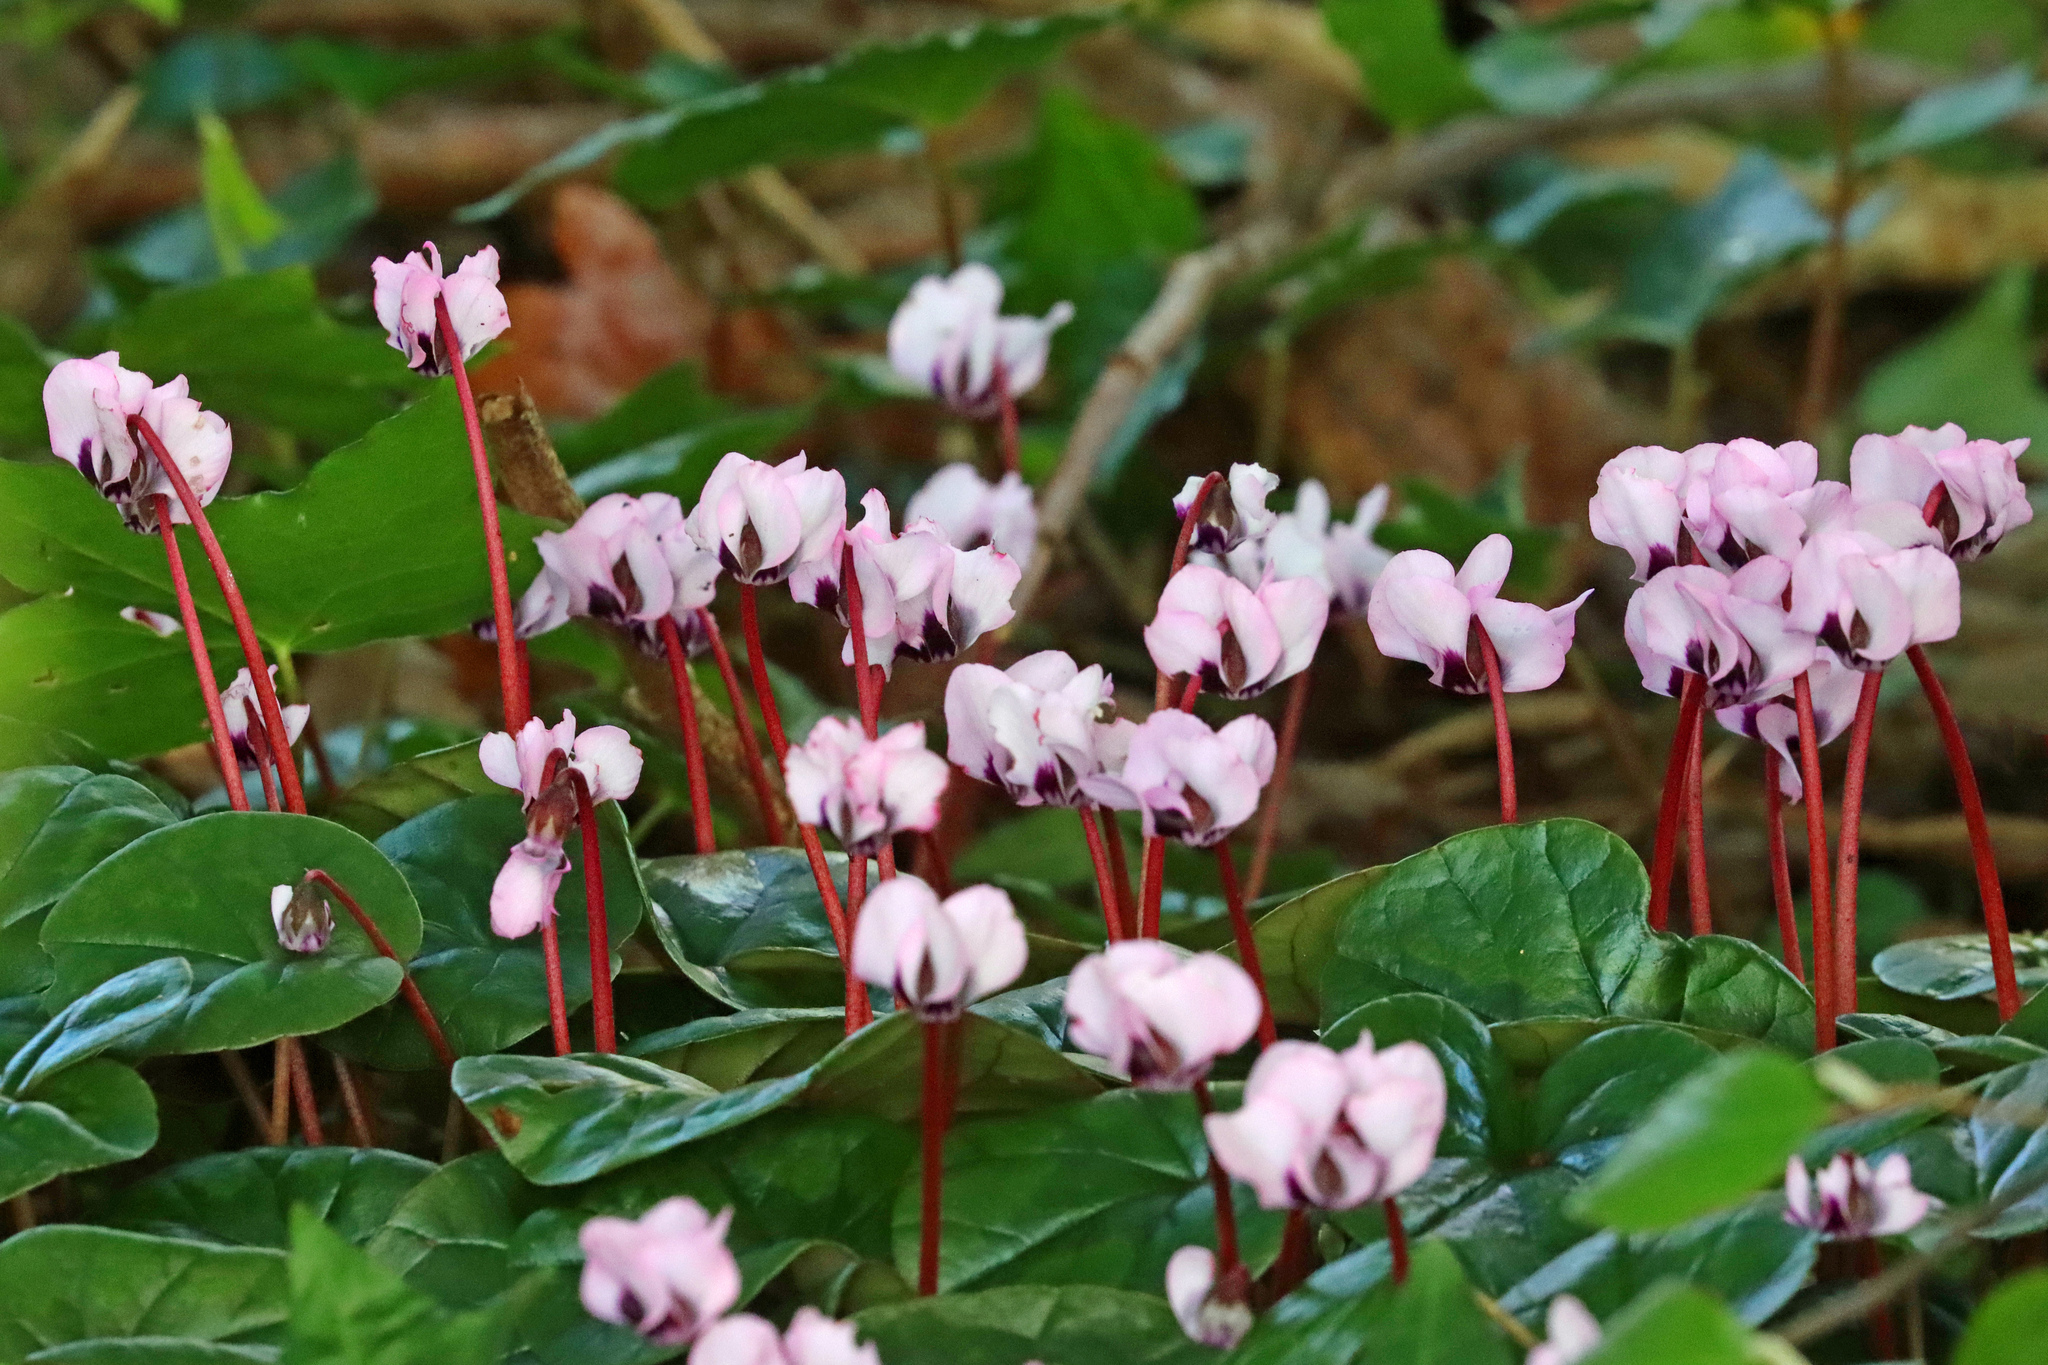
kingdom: Plantae
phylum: Tracheophyta
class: Magnoliopsida
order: Ericales
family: Primulaceae
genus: Cyclamen
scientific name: Cyclamen coum
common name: Eastern sowbread
